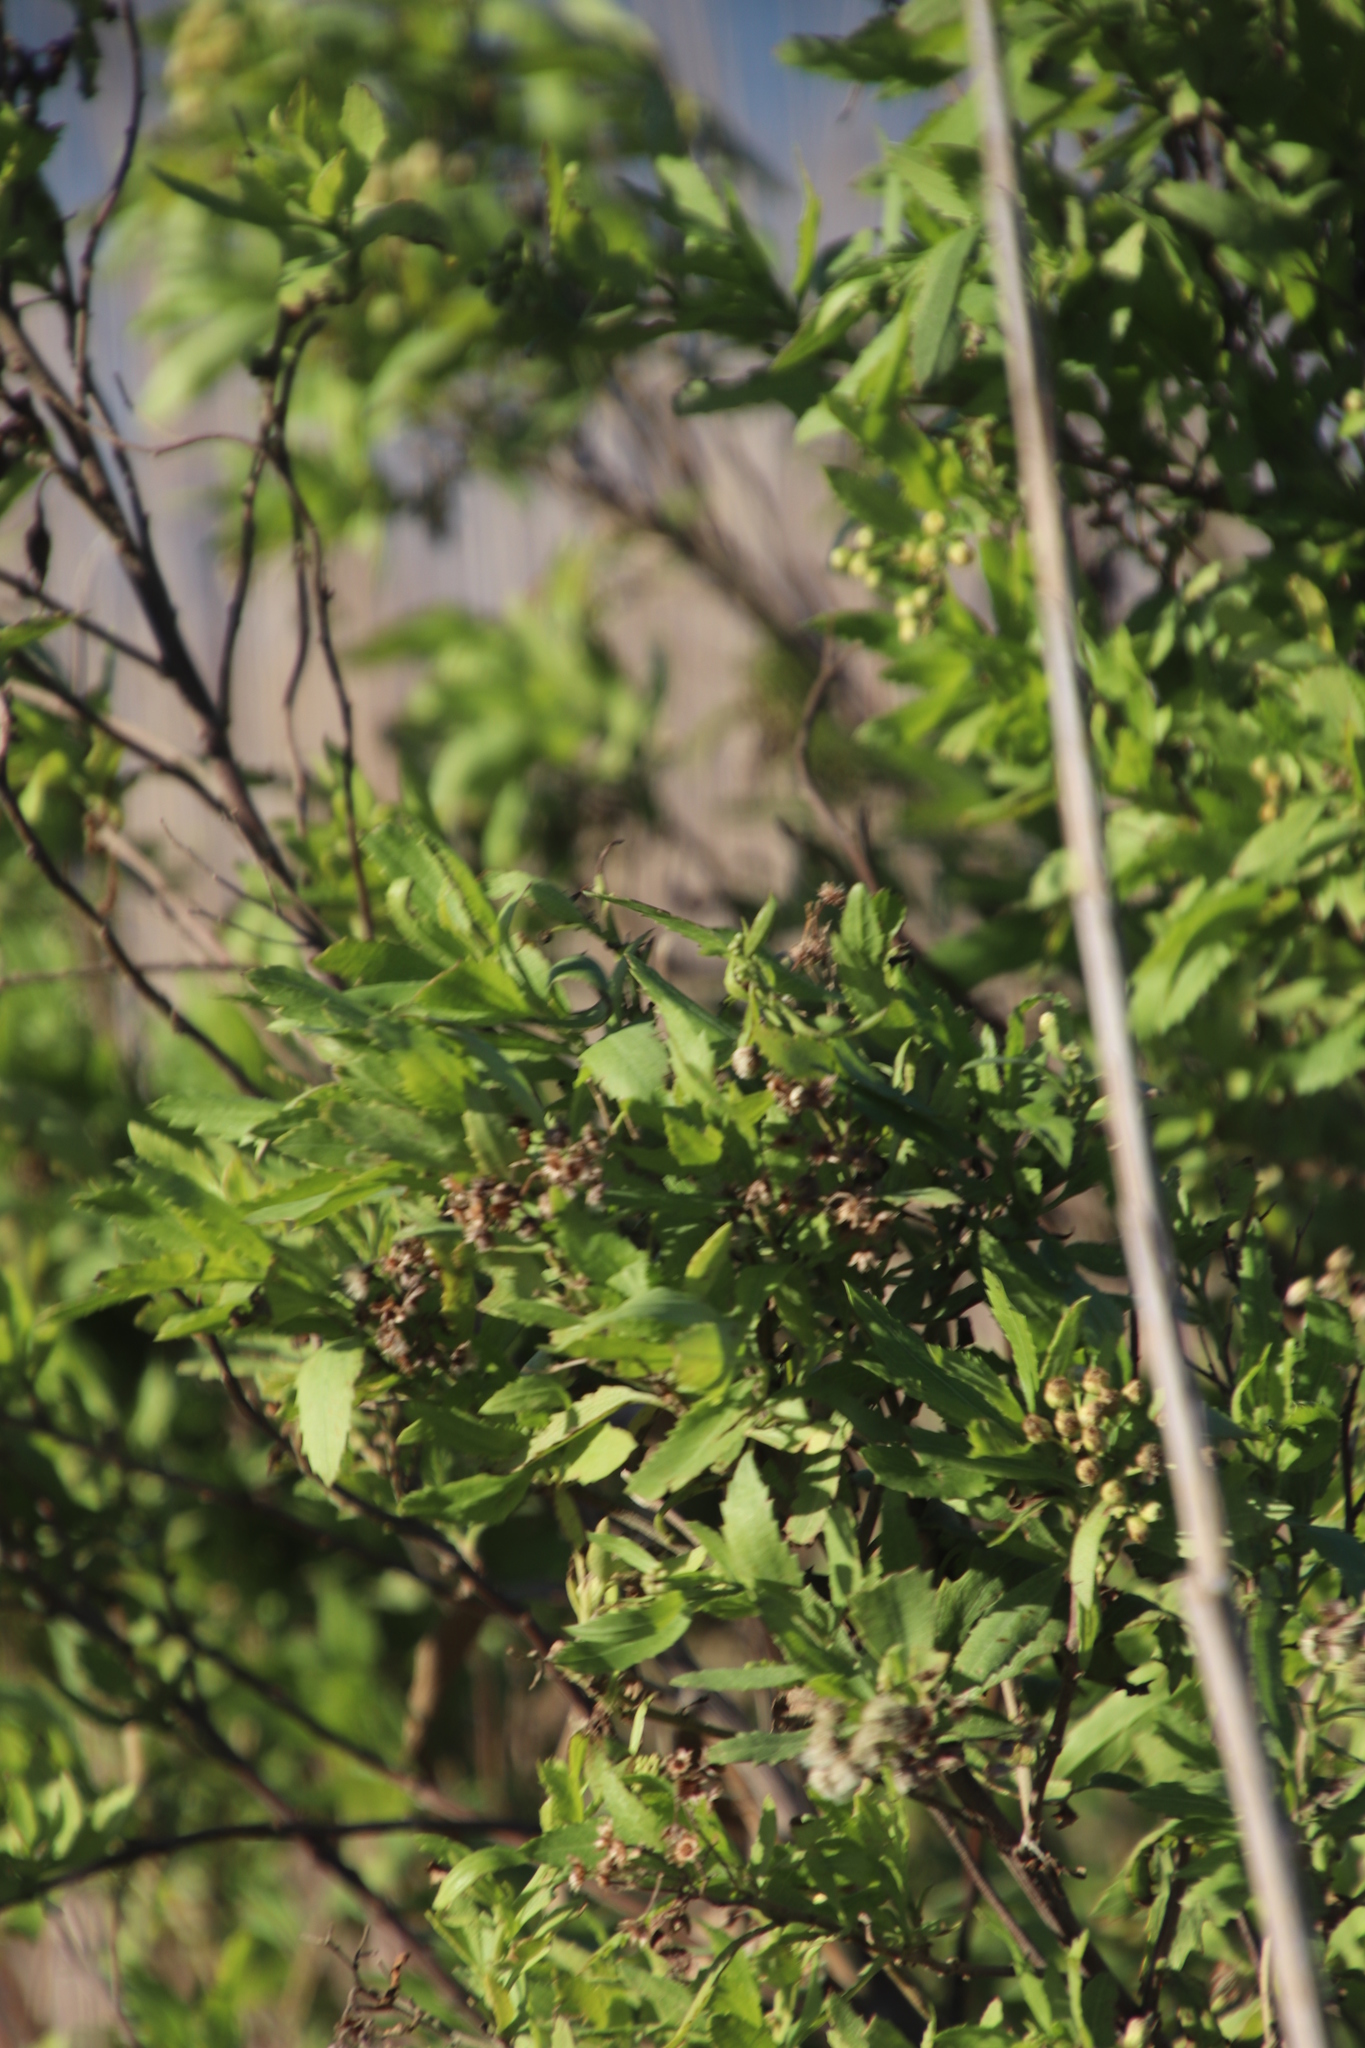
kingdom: Plantae
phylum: Tracheophyta
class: Magnoliopsida
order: Asterales
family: Asteraceae
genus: Nidorella
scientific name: Nidorella ivifolia
